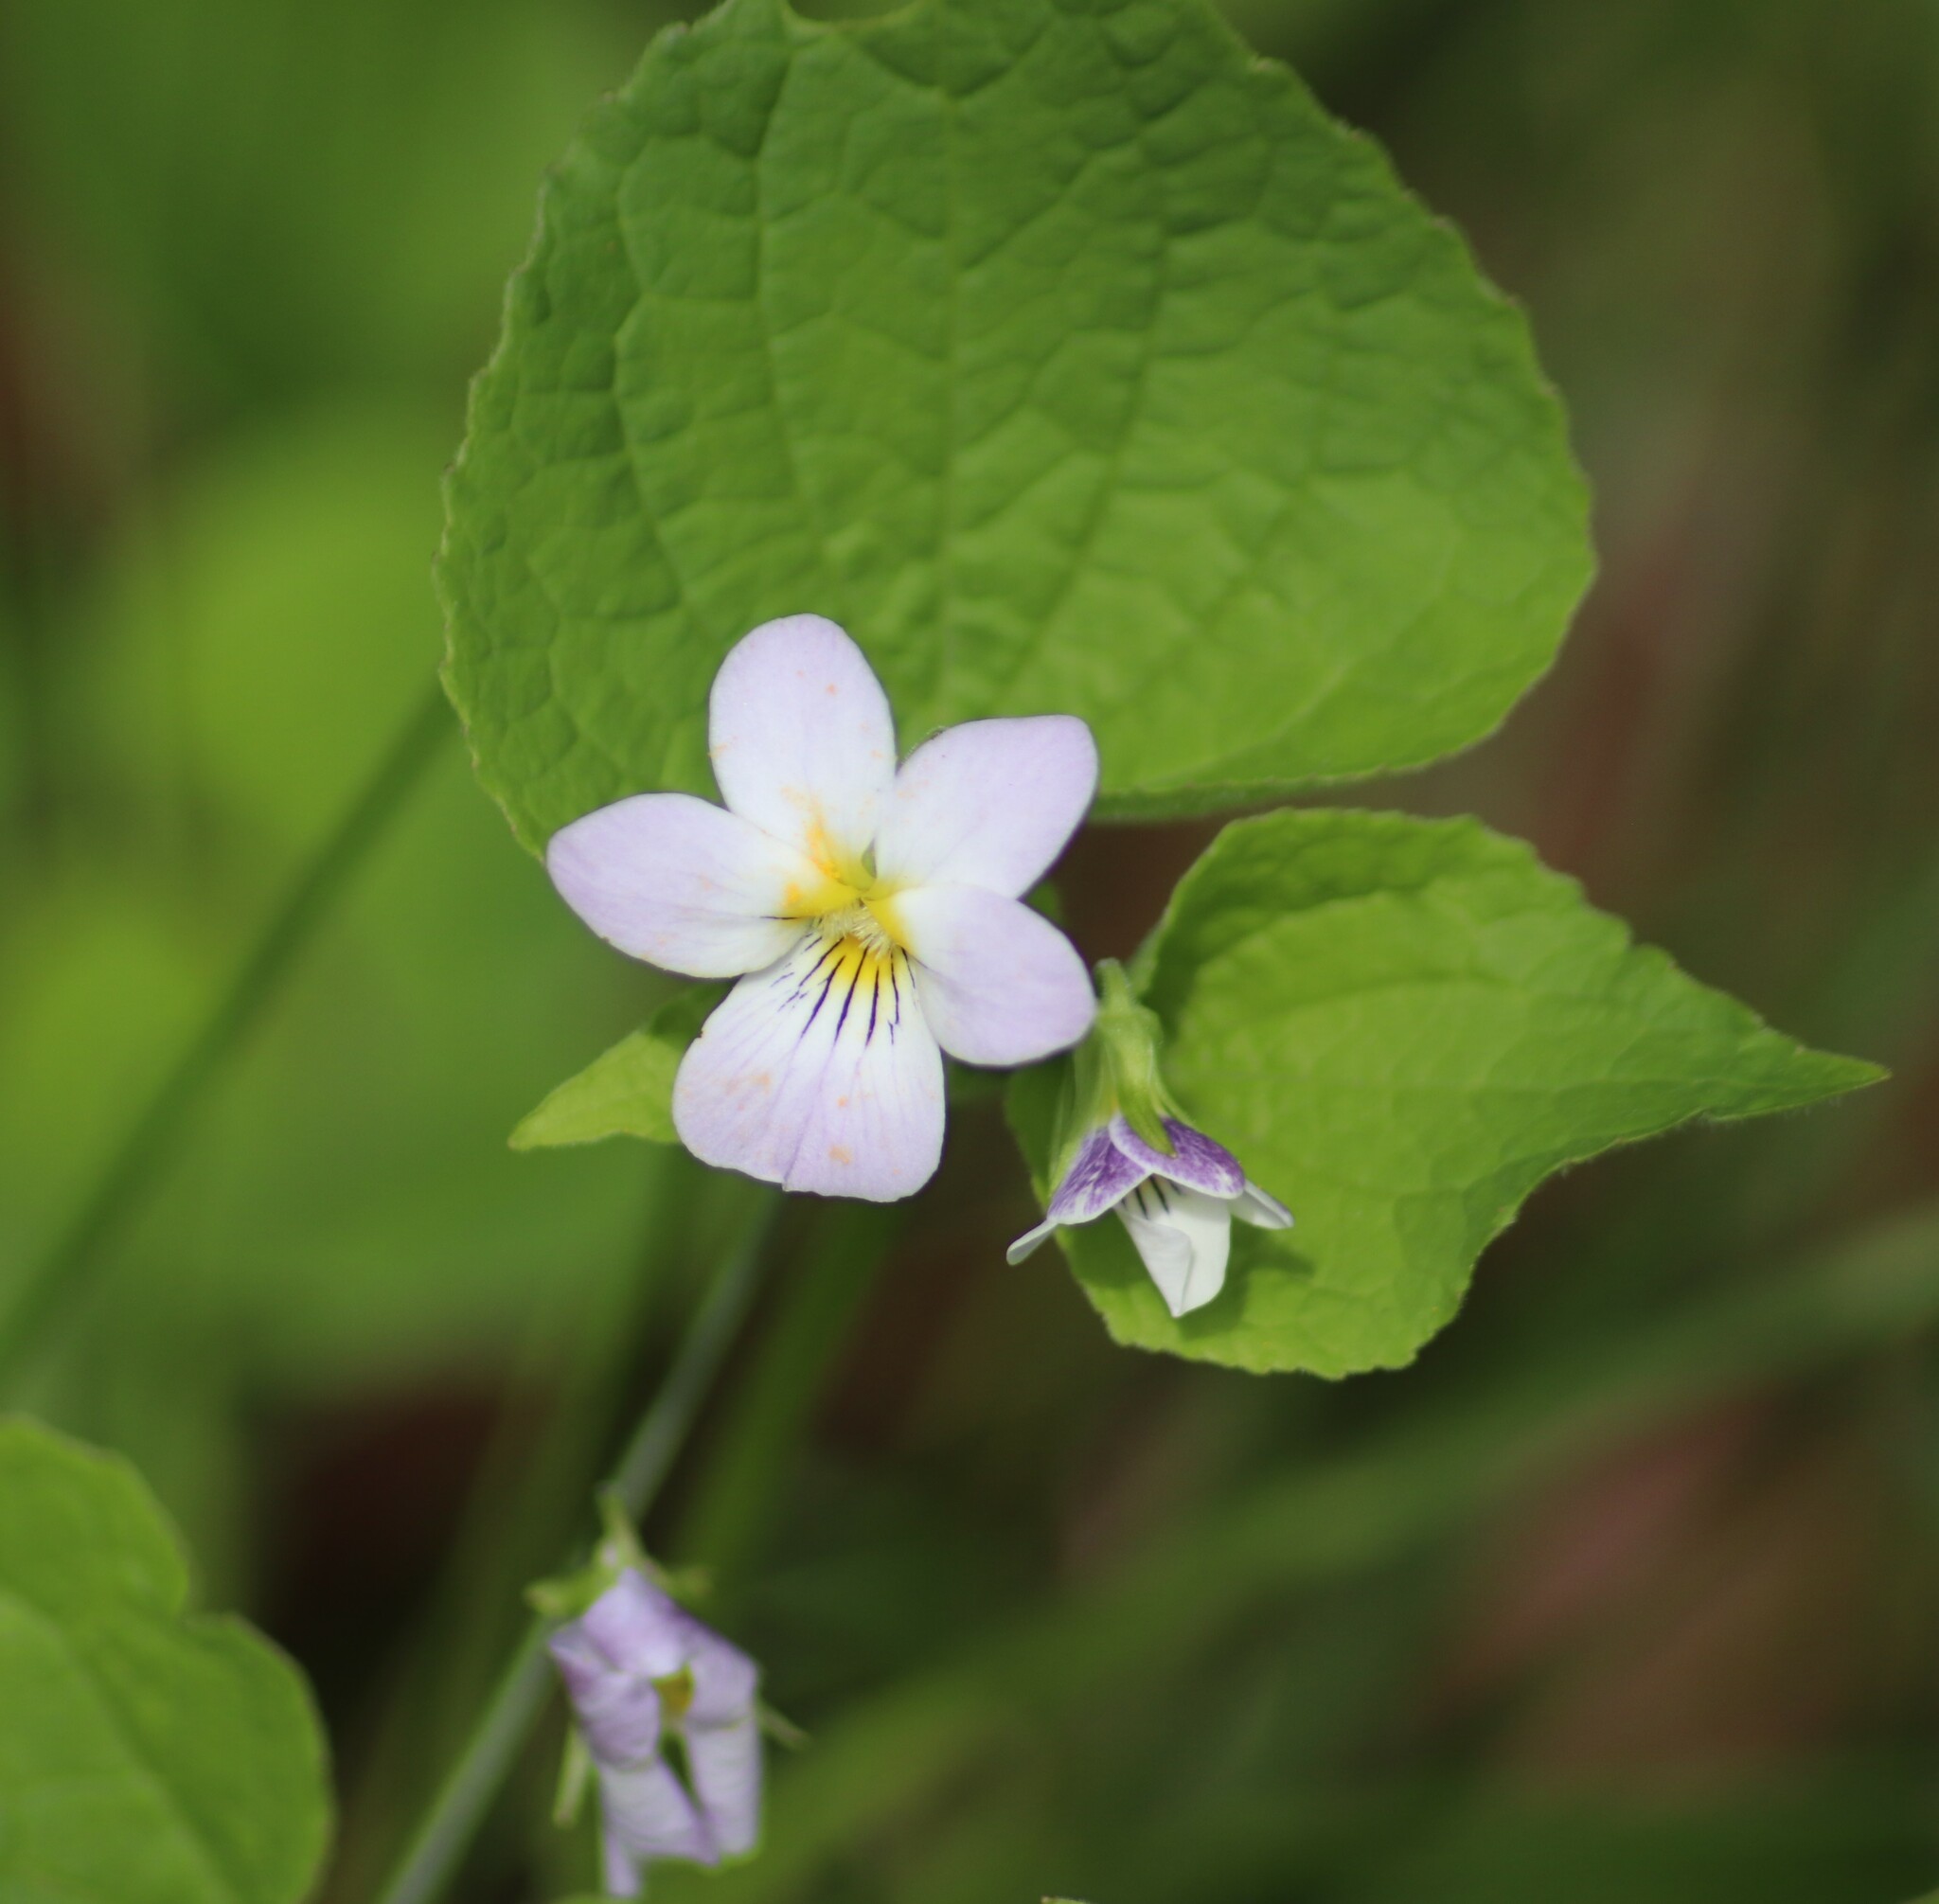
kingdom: Plantae
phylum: Tracheophyta
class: Magnoliopsida
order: Malpighiales
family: Violaceae
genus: Viola
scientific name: Viola canadensis
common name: Canada violet
